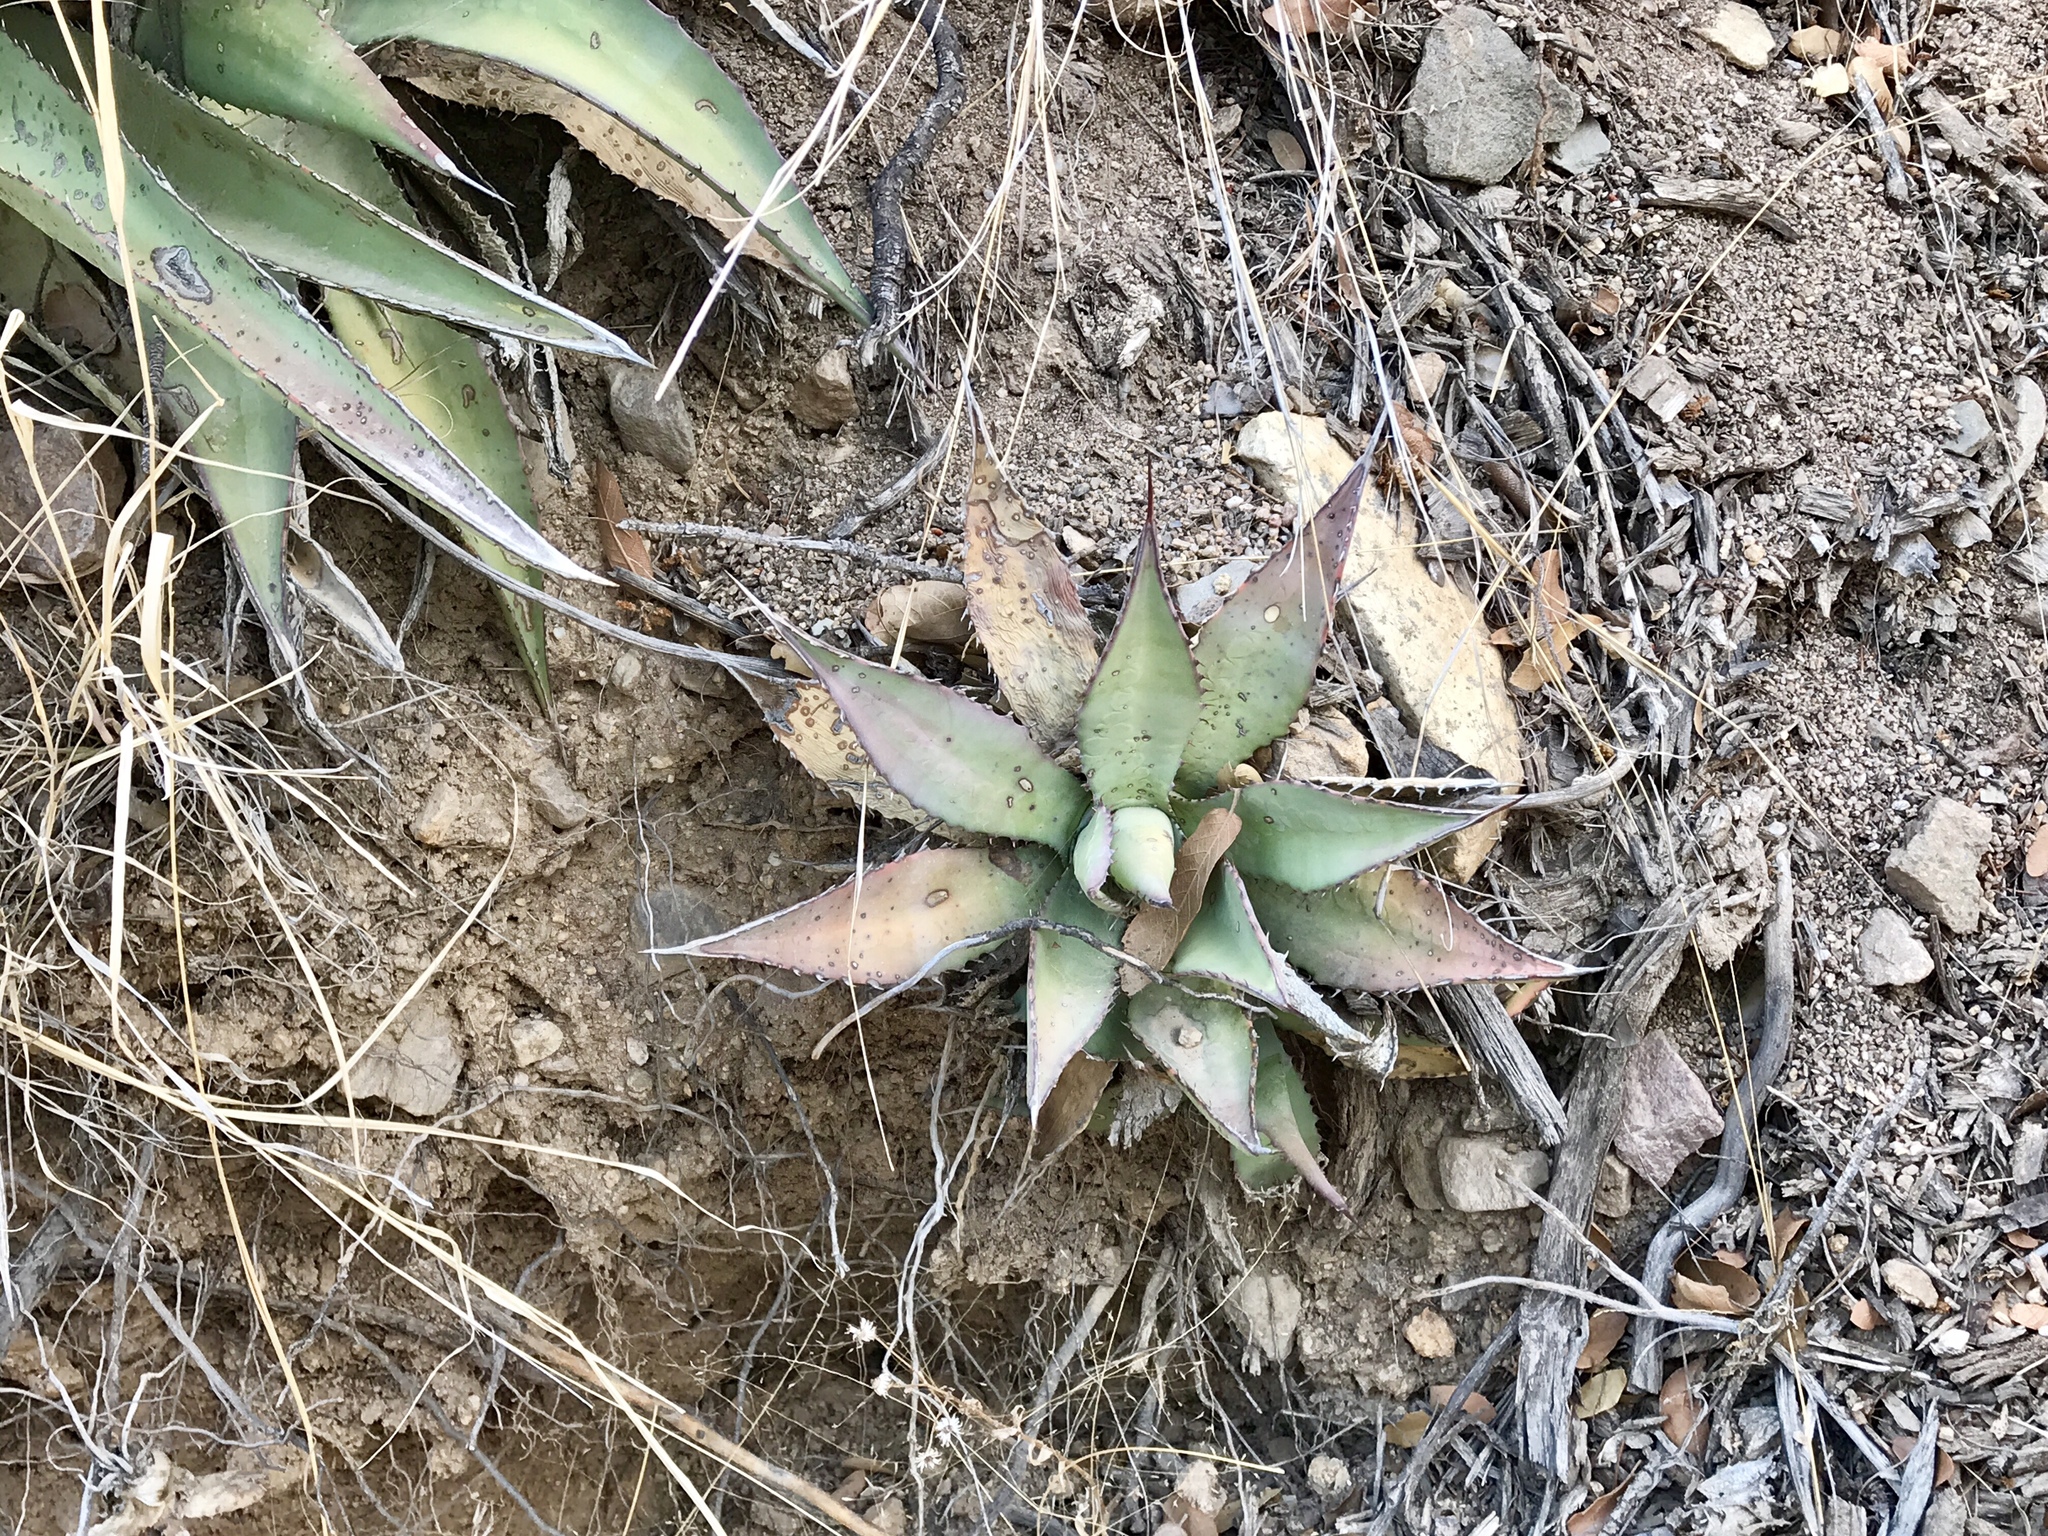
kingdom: Plantae
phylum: Tracheophyta
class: Liliopsida
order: Asparagales
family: Asparagaceae
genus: Agave
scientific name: Agave shrevei
